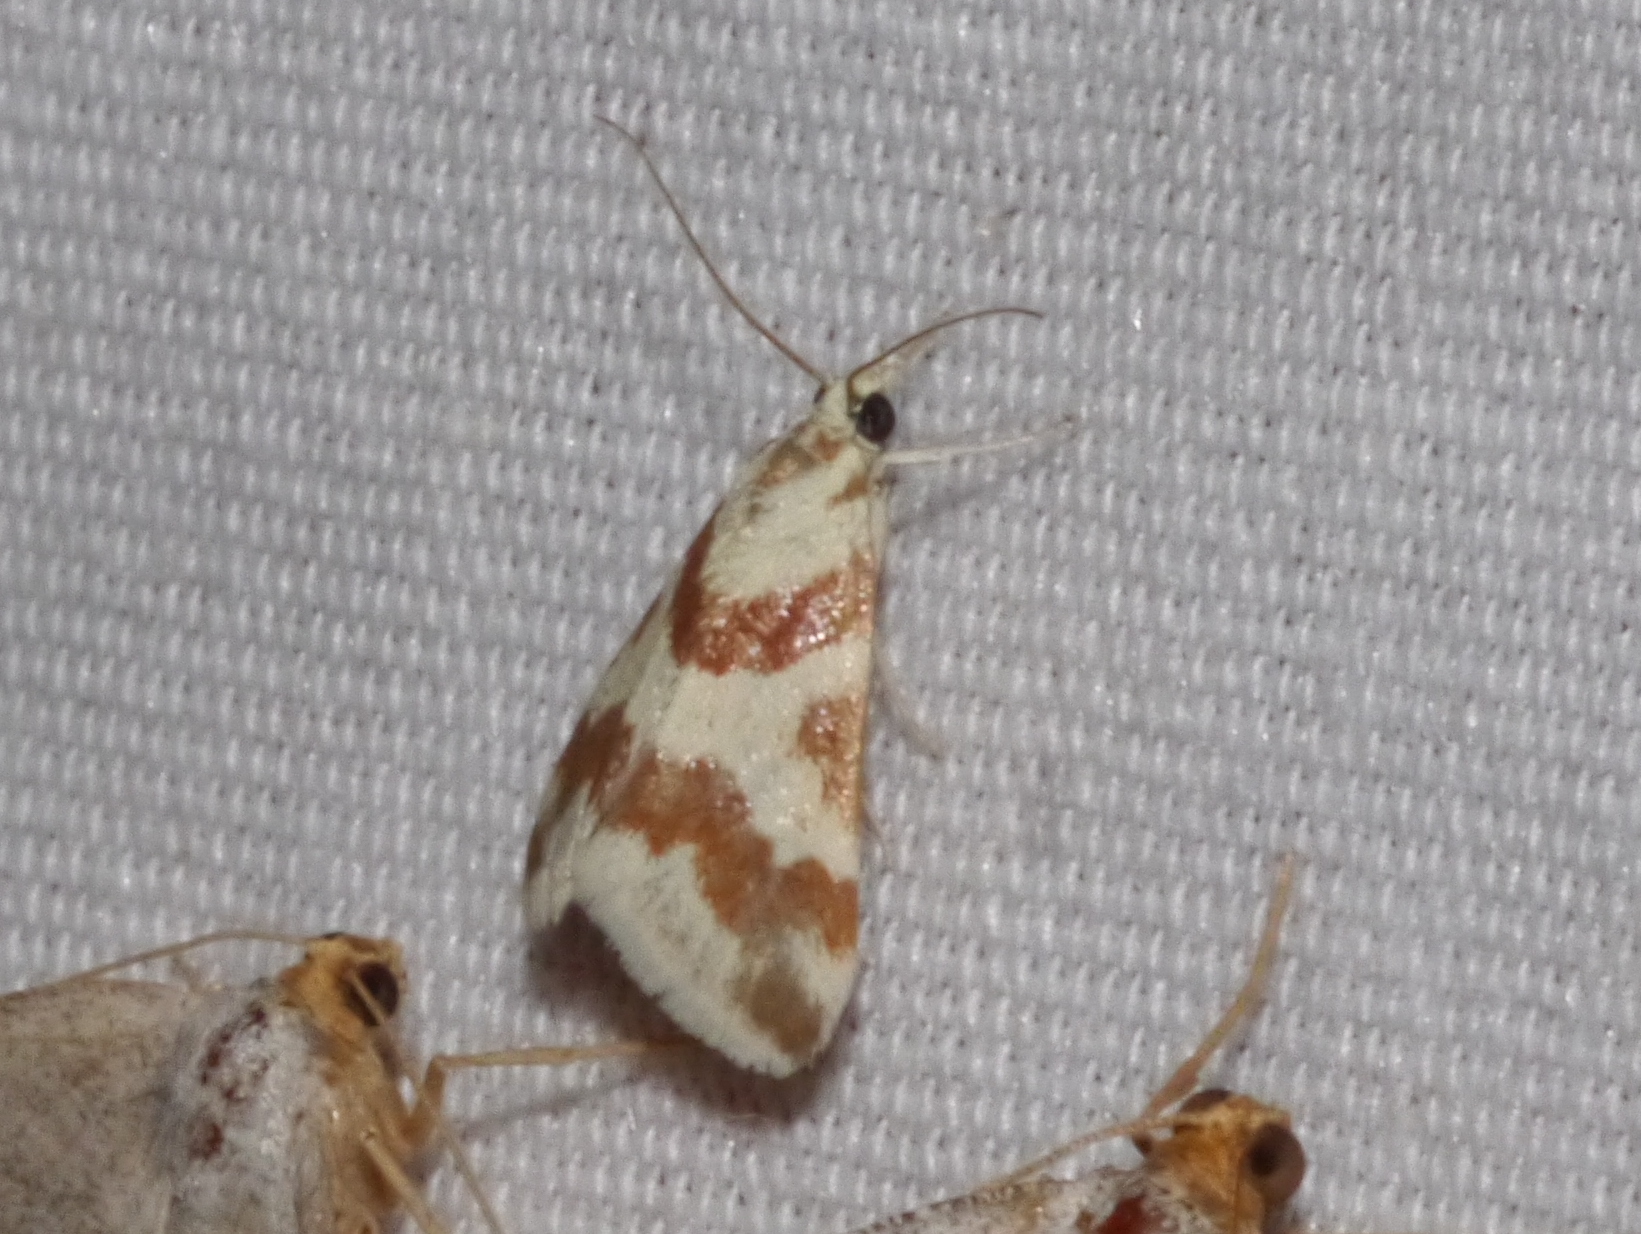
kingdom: Animalia
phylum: Arthropoda
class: Insecta
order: Lepidoptera
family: Crambidae
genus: Noctuelia
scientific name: Noctuelia Mimoschinia rufofascialis
